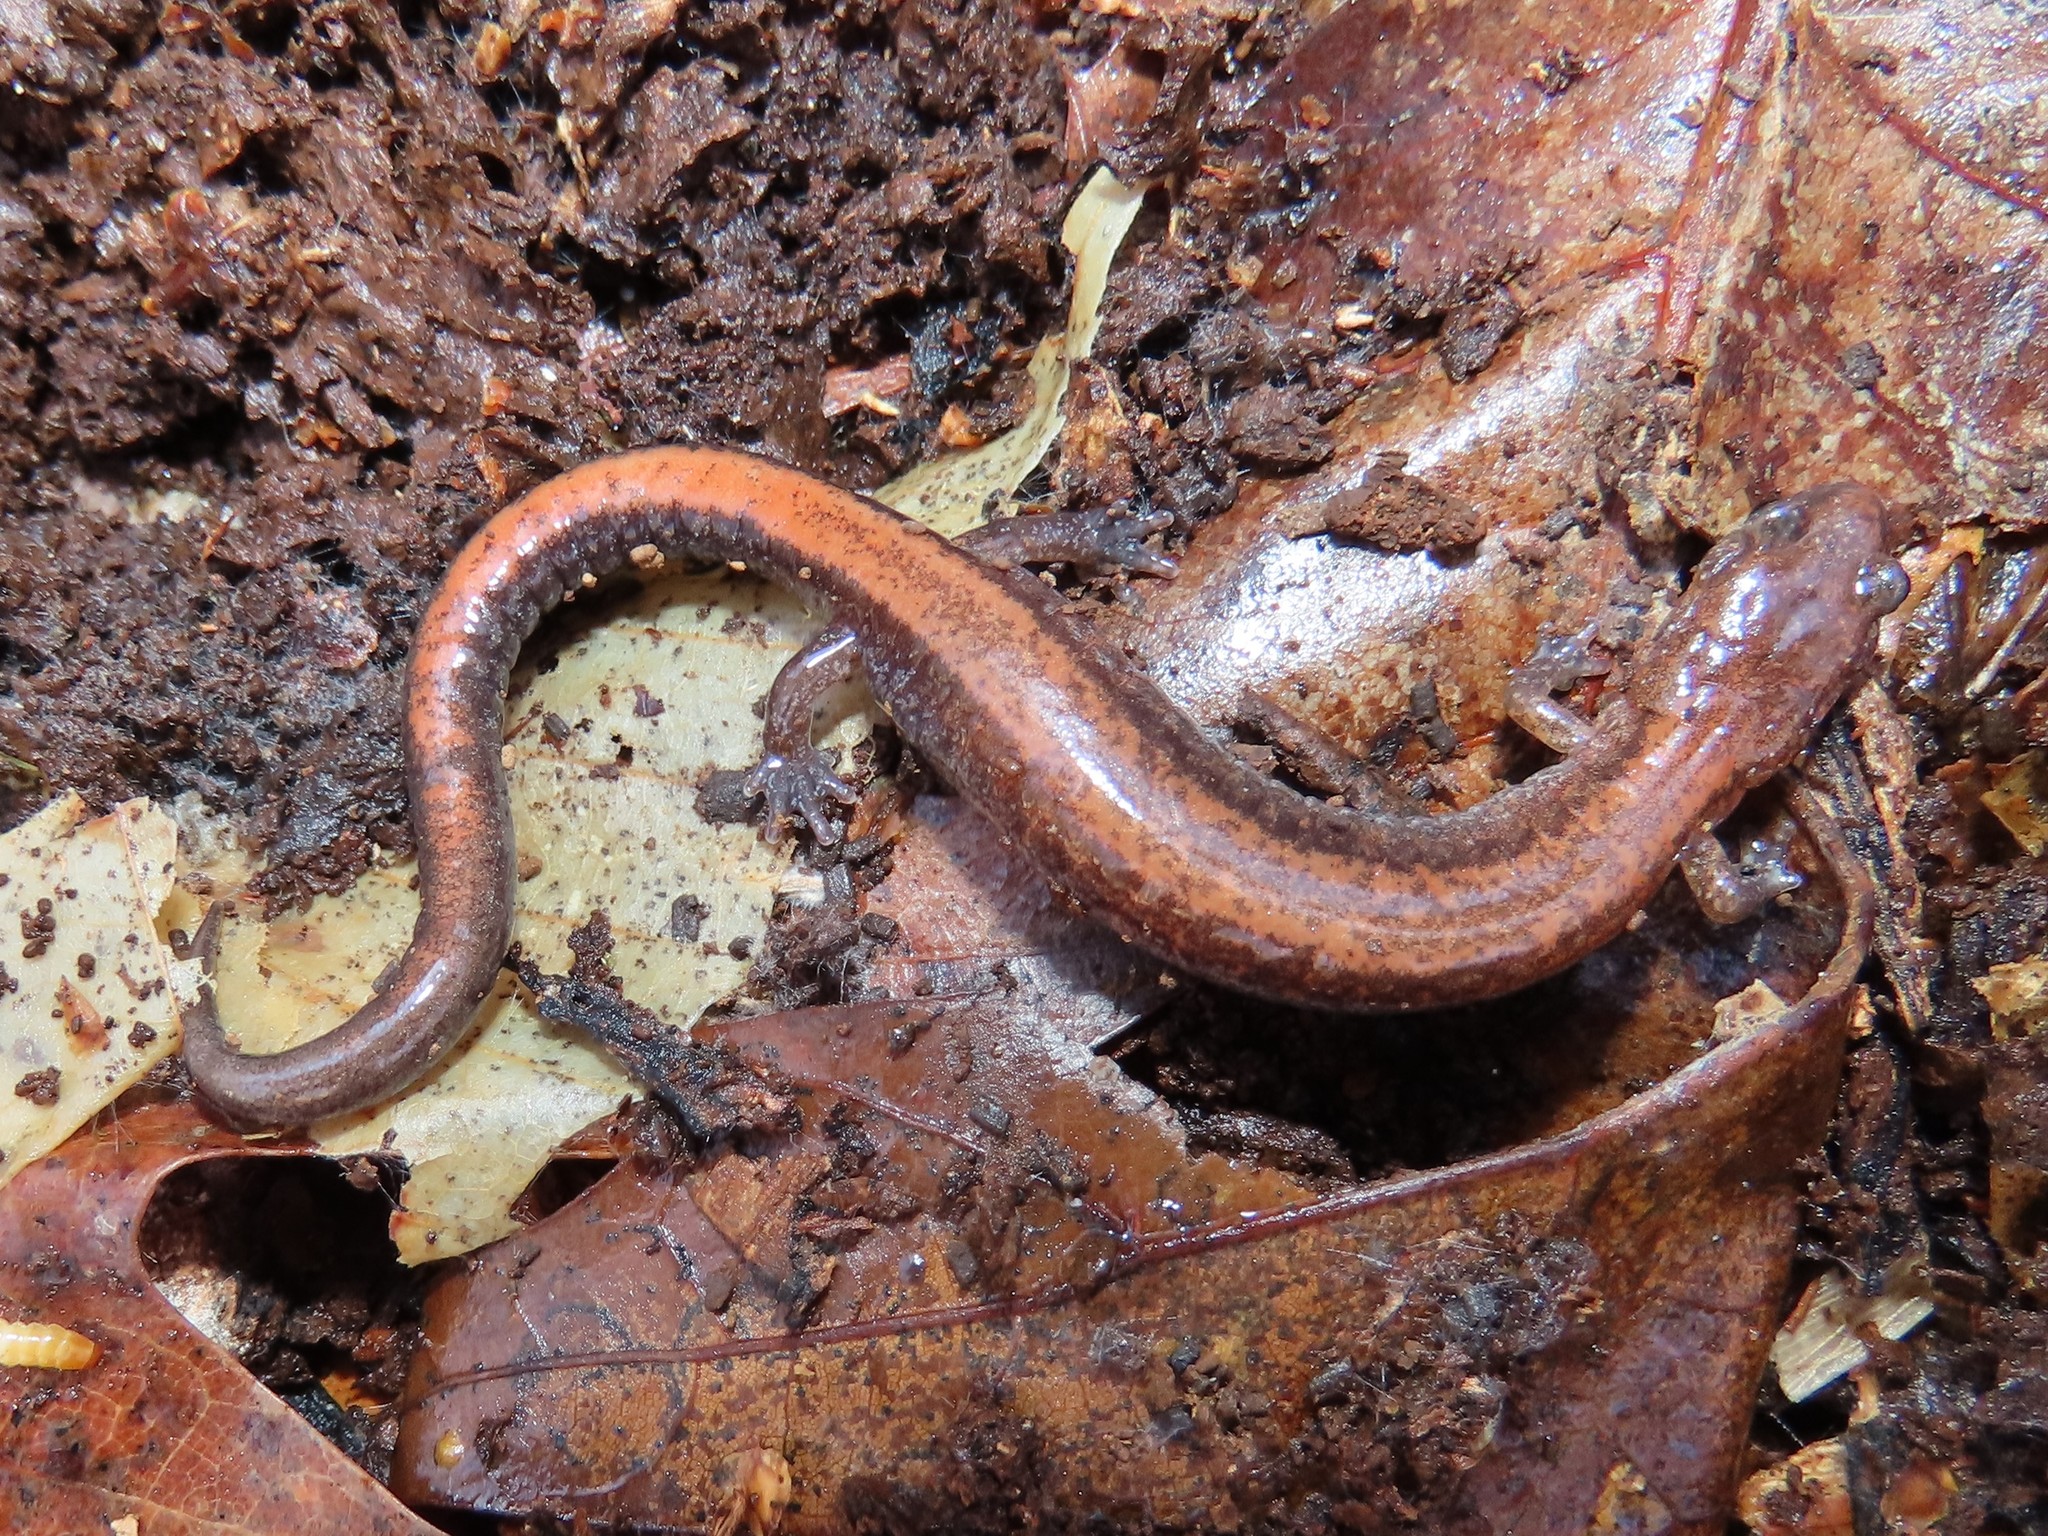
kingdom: Animalia
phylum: Chordata
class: Amphibia
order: Caudata
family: Plethodontidae
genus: Plethodon
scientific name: Plethodon cinereus
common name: Redback salamander
